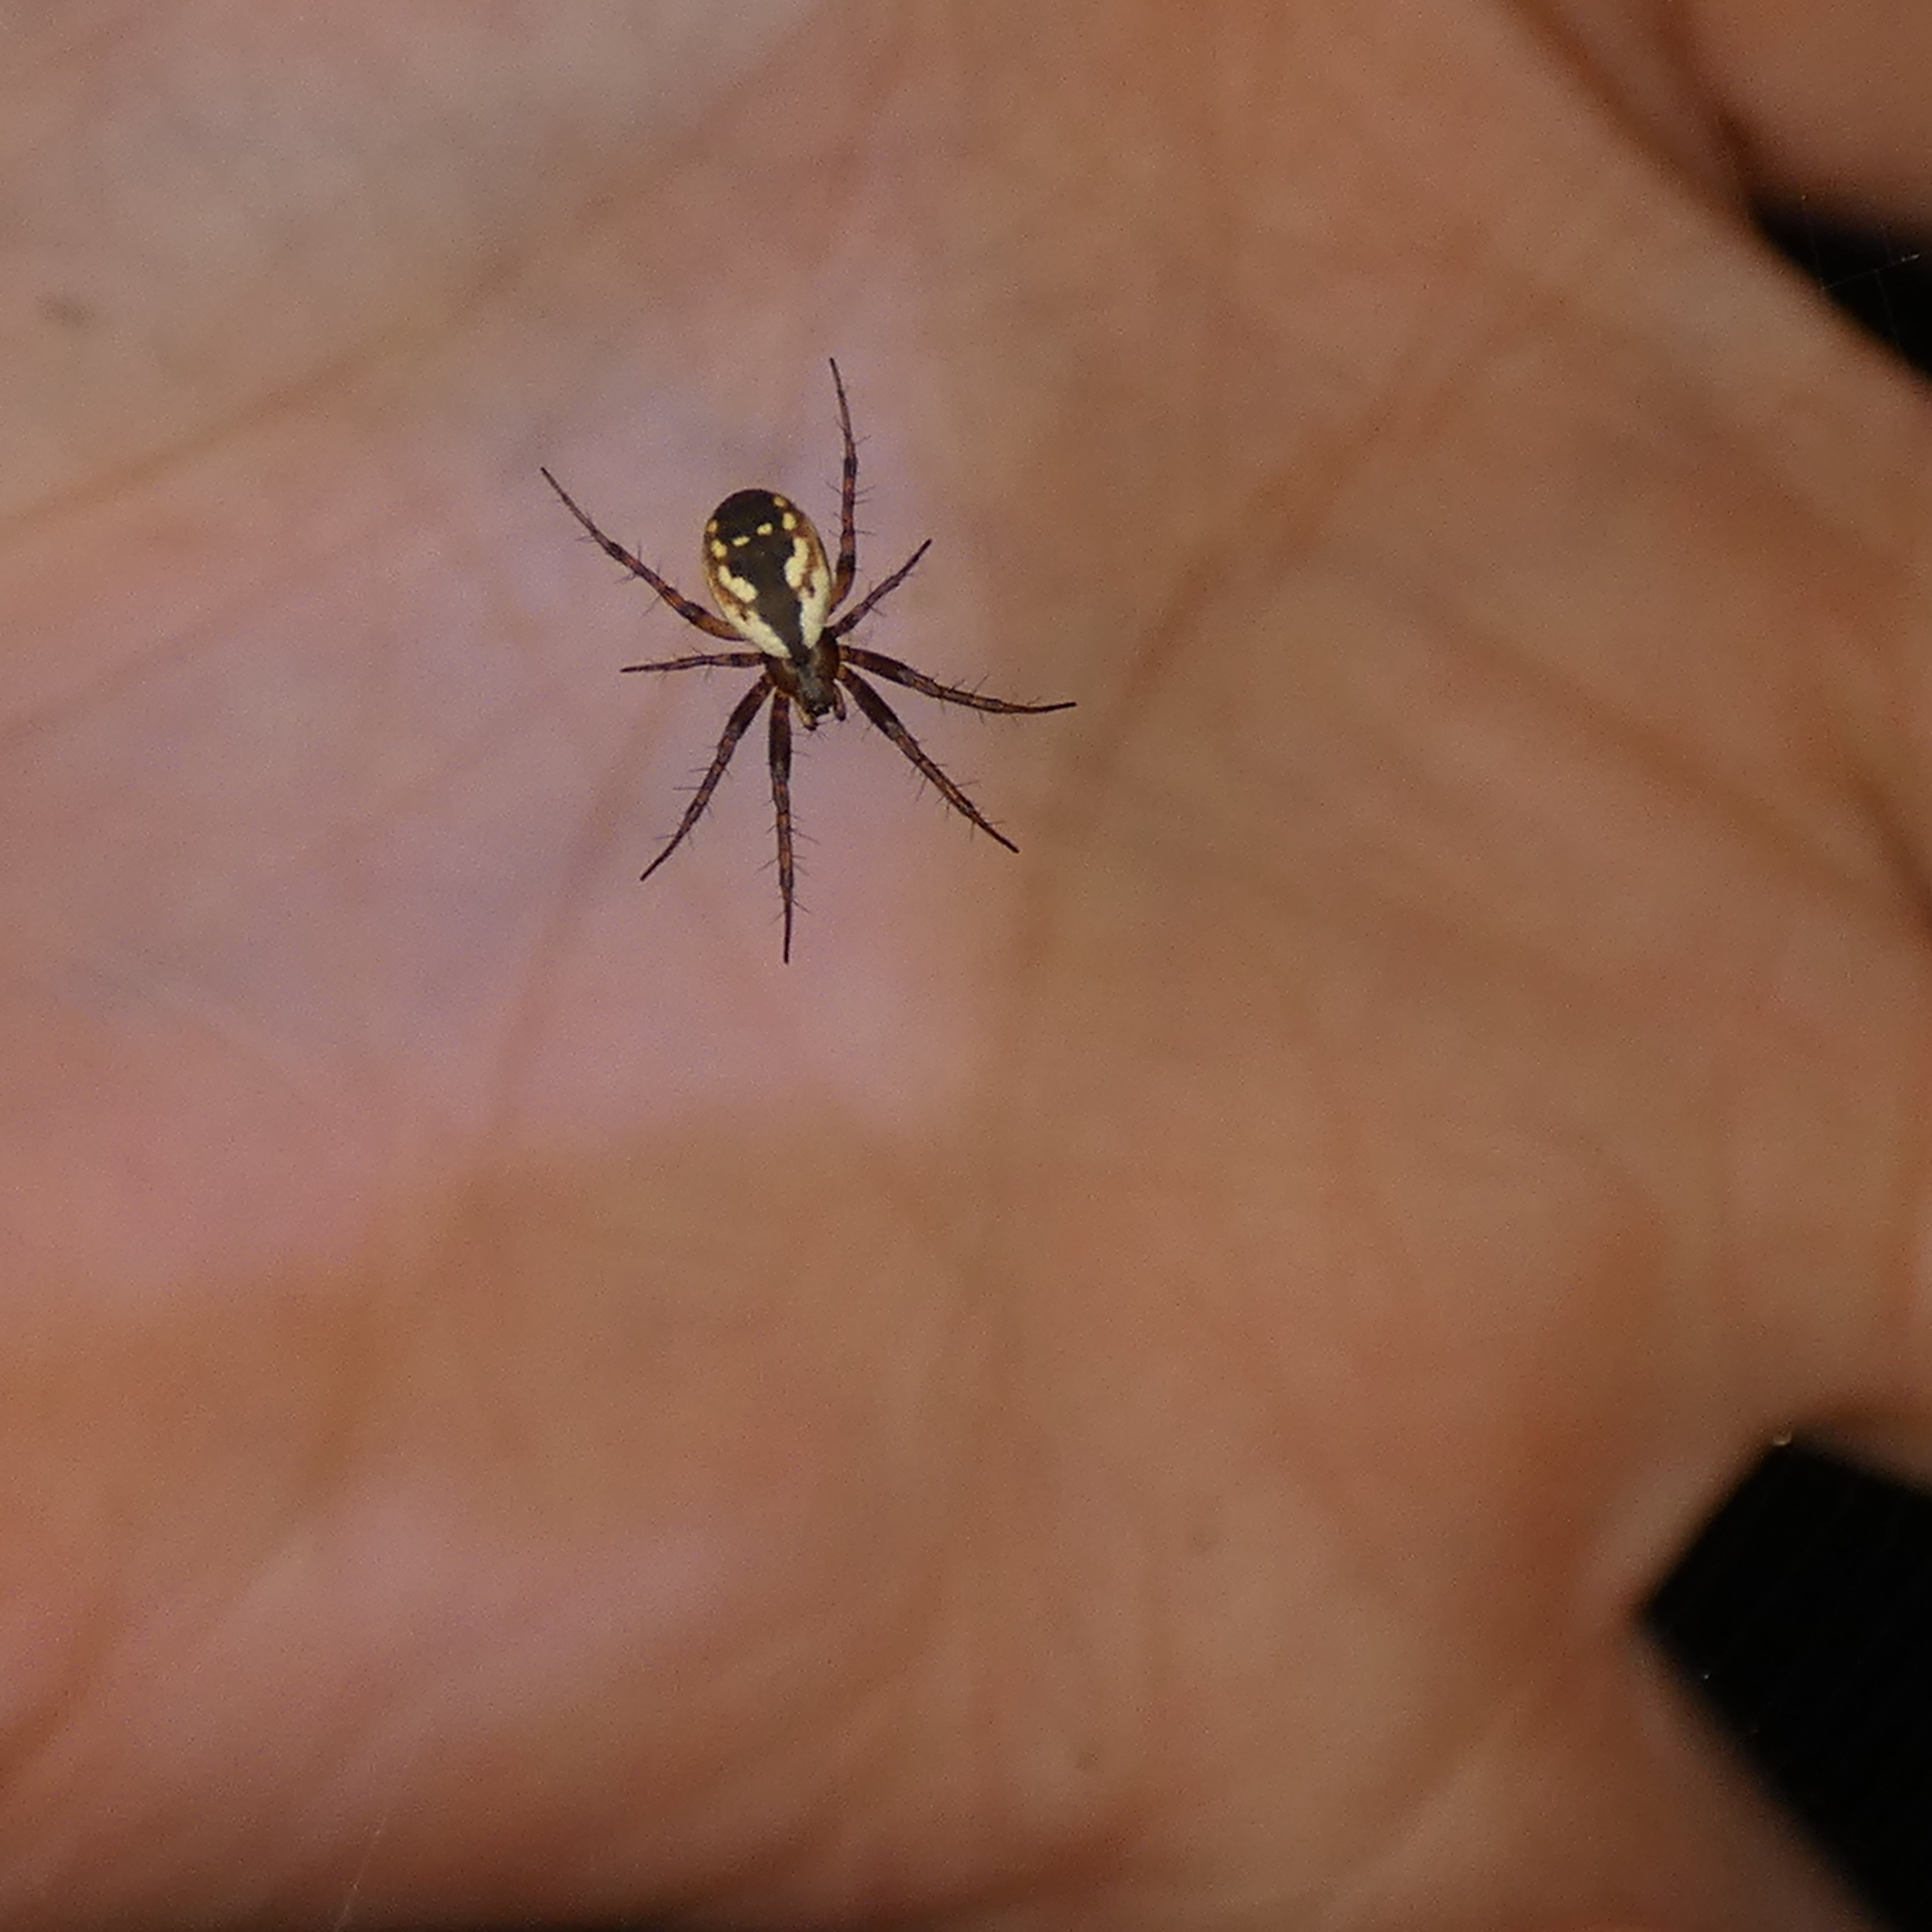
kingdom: Animalia
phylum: Arthropoda
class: Arachnida
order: Araneae
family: Araneidae
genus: Mangora
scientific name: Mangora placida
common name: Tuft-legged orbweaver
